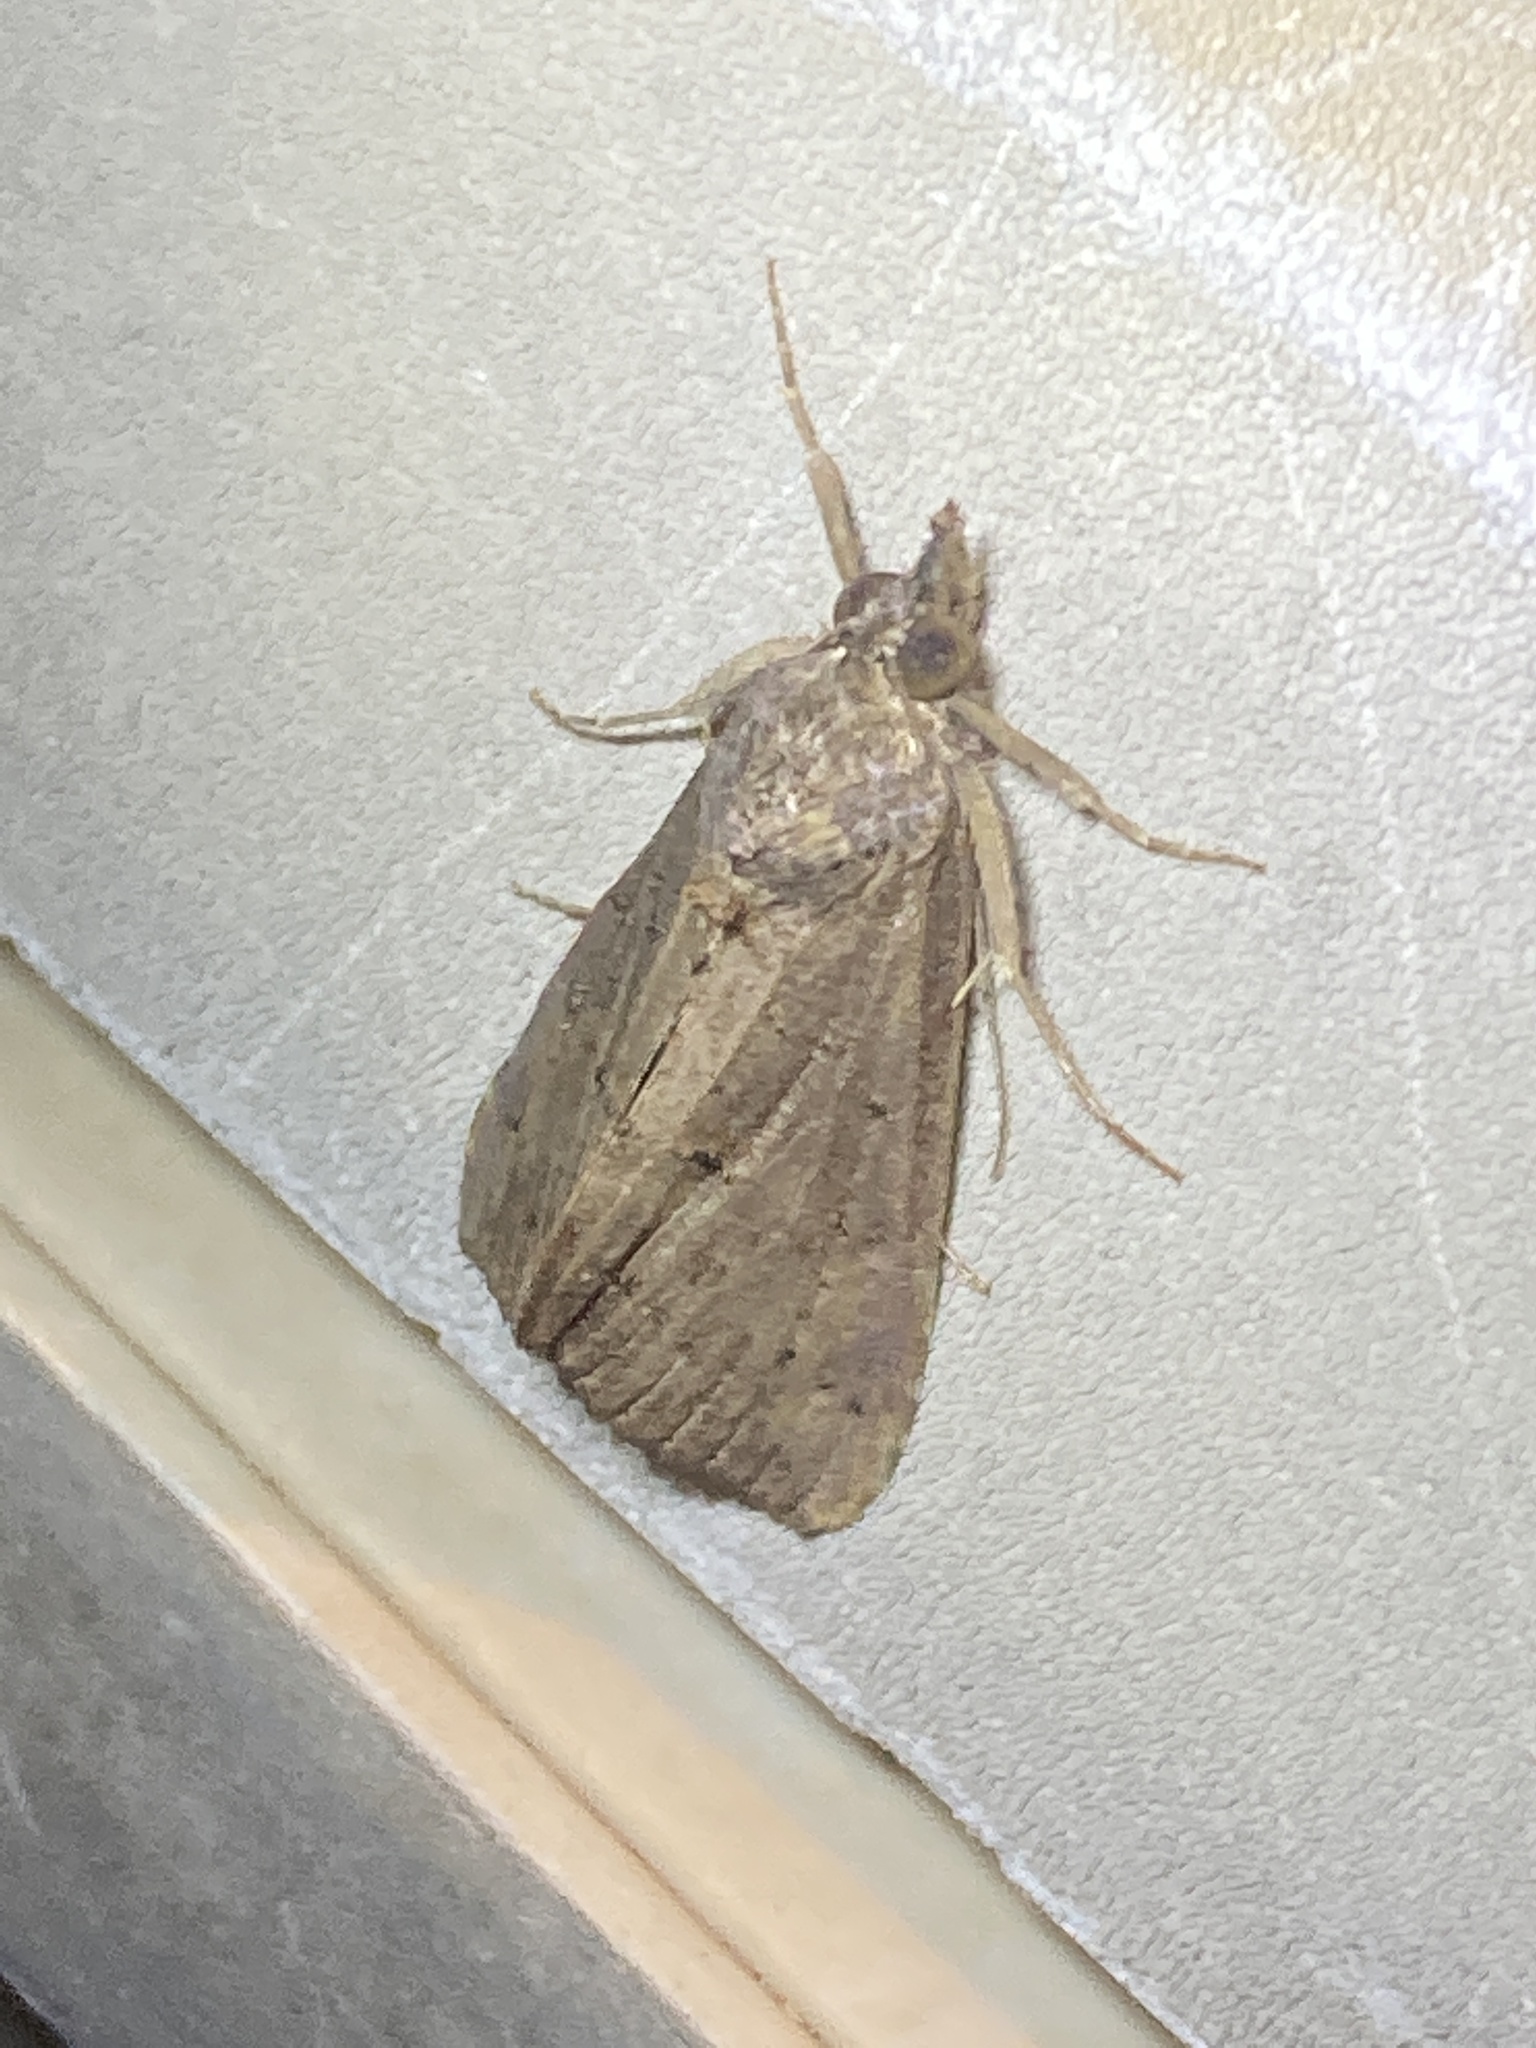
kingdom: Animalia
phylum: Arthropoda
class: Insecta
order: Lepidoptera
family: Erebidae
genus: Hypena
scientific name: Hypena scabra
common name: Green cloverworm
